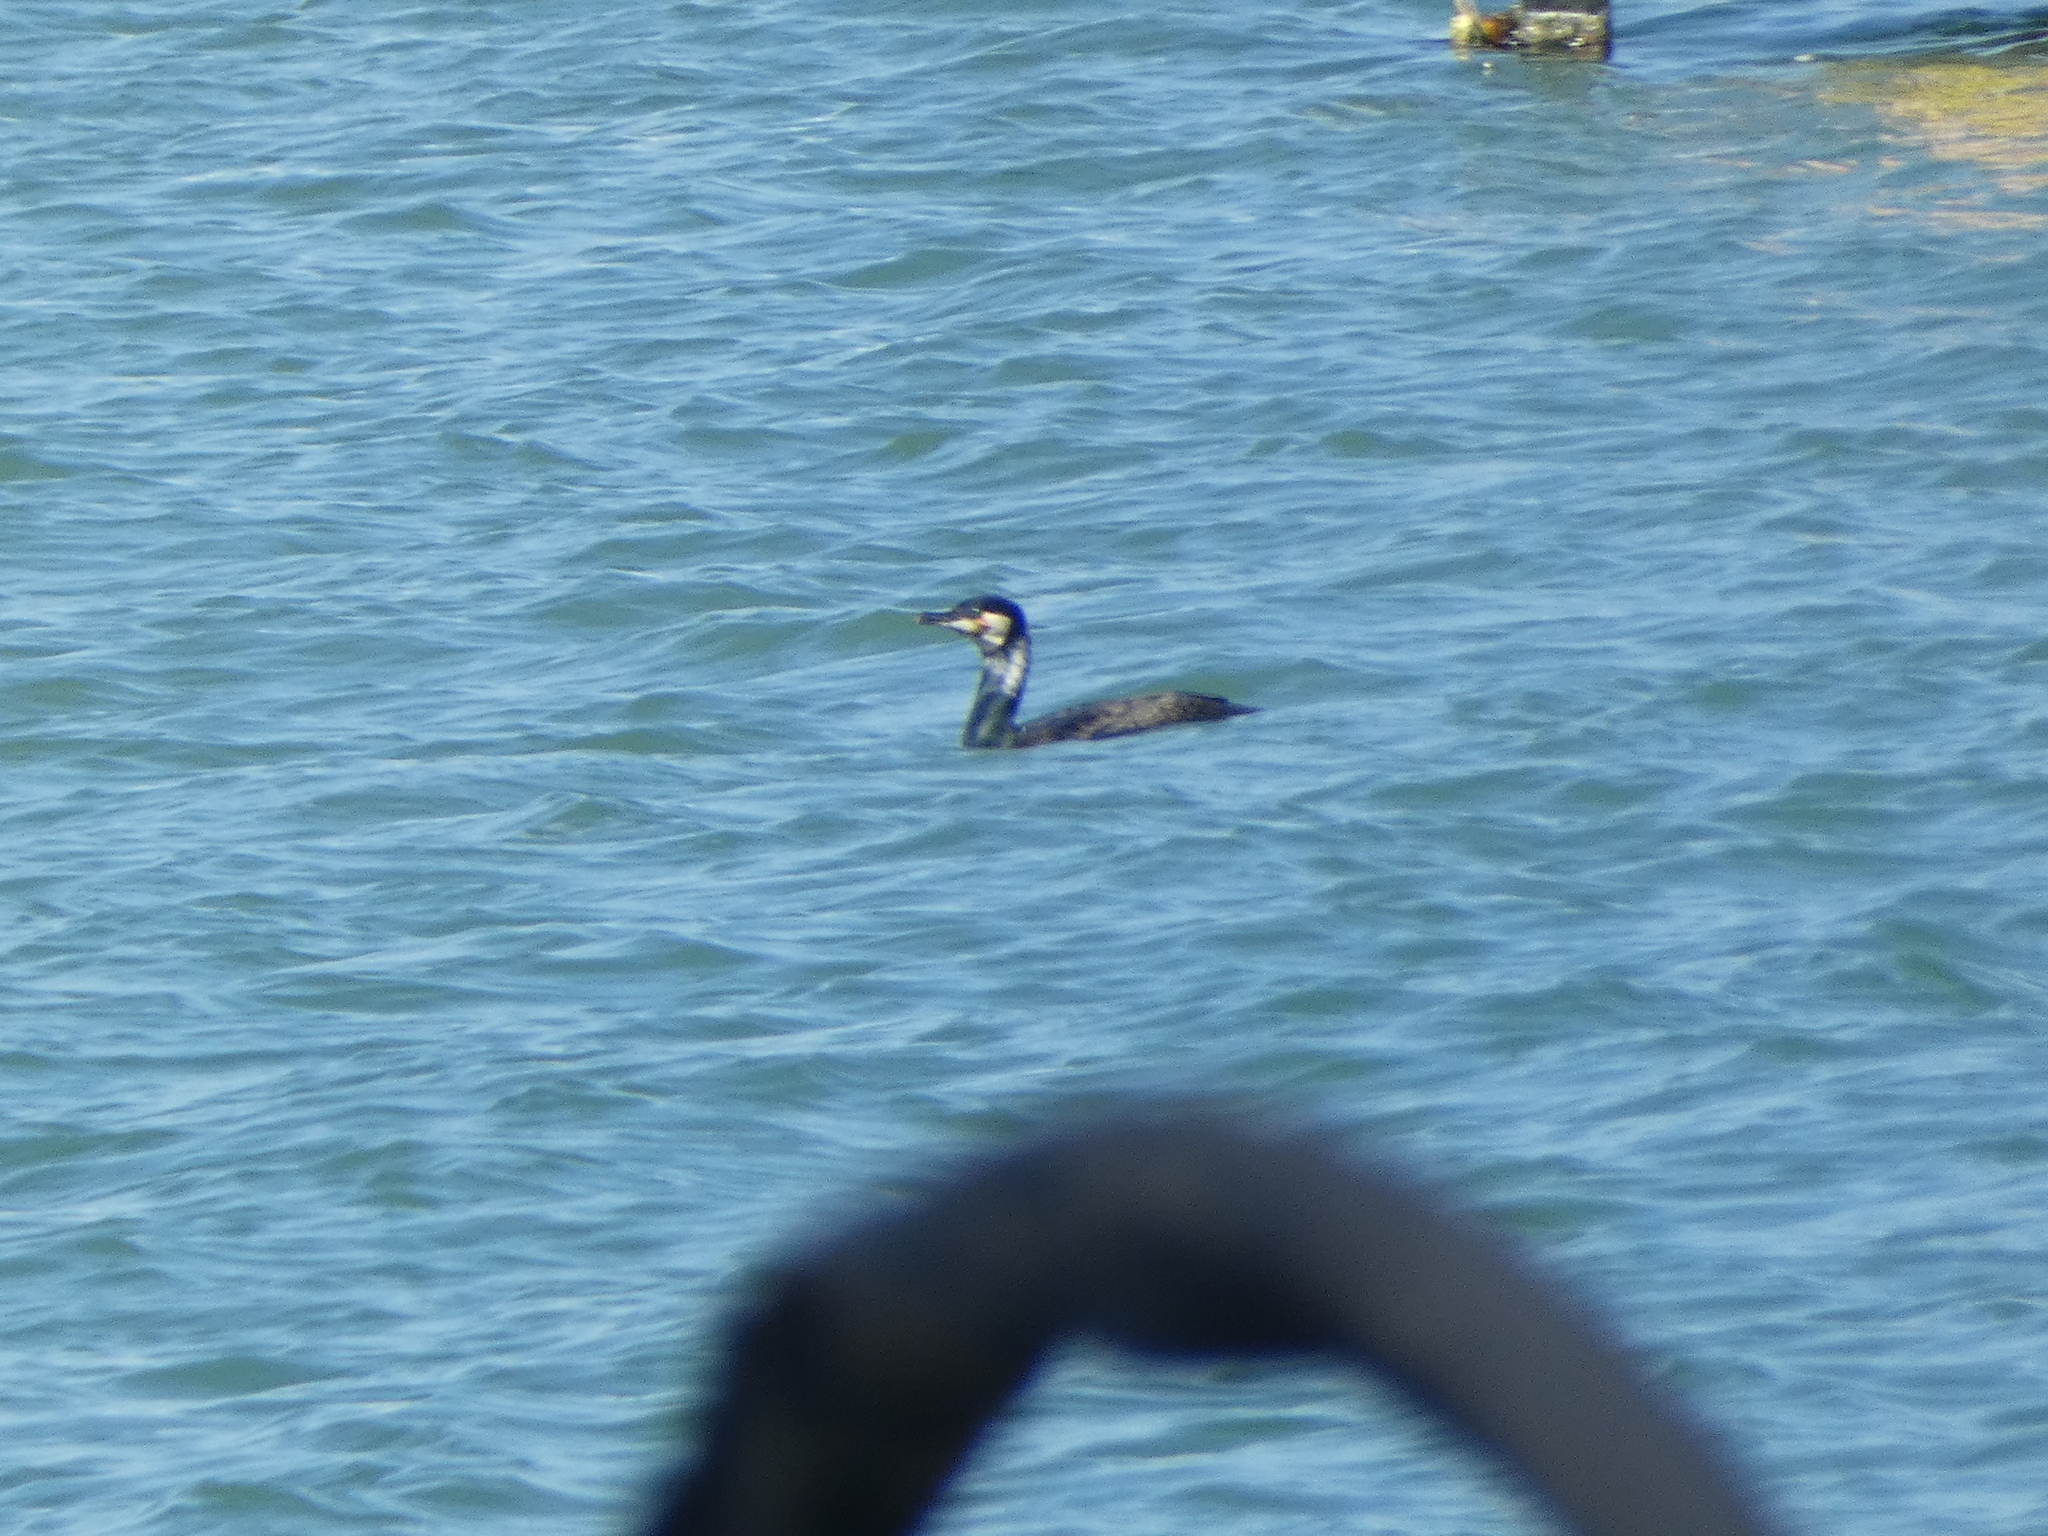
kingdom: Animalia
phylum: Chordata
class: Aves
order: Suliformes
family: Phalacrocoracidae
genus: Phalacrocorax
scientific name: Phalacrocorax carbo
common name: Great cormorant
